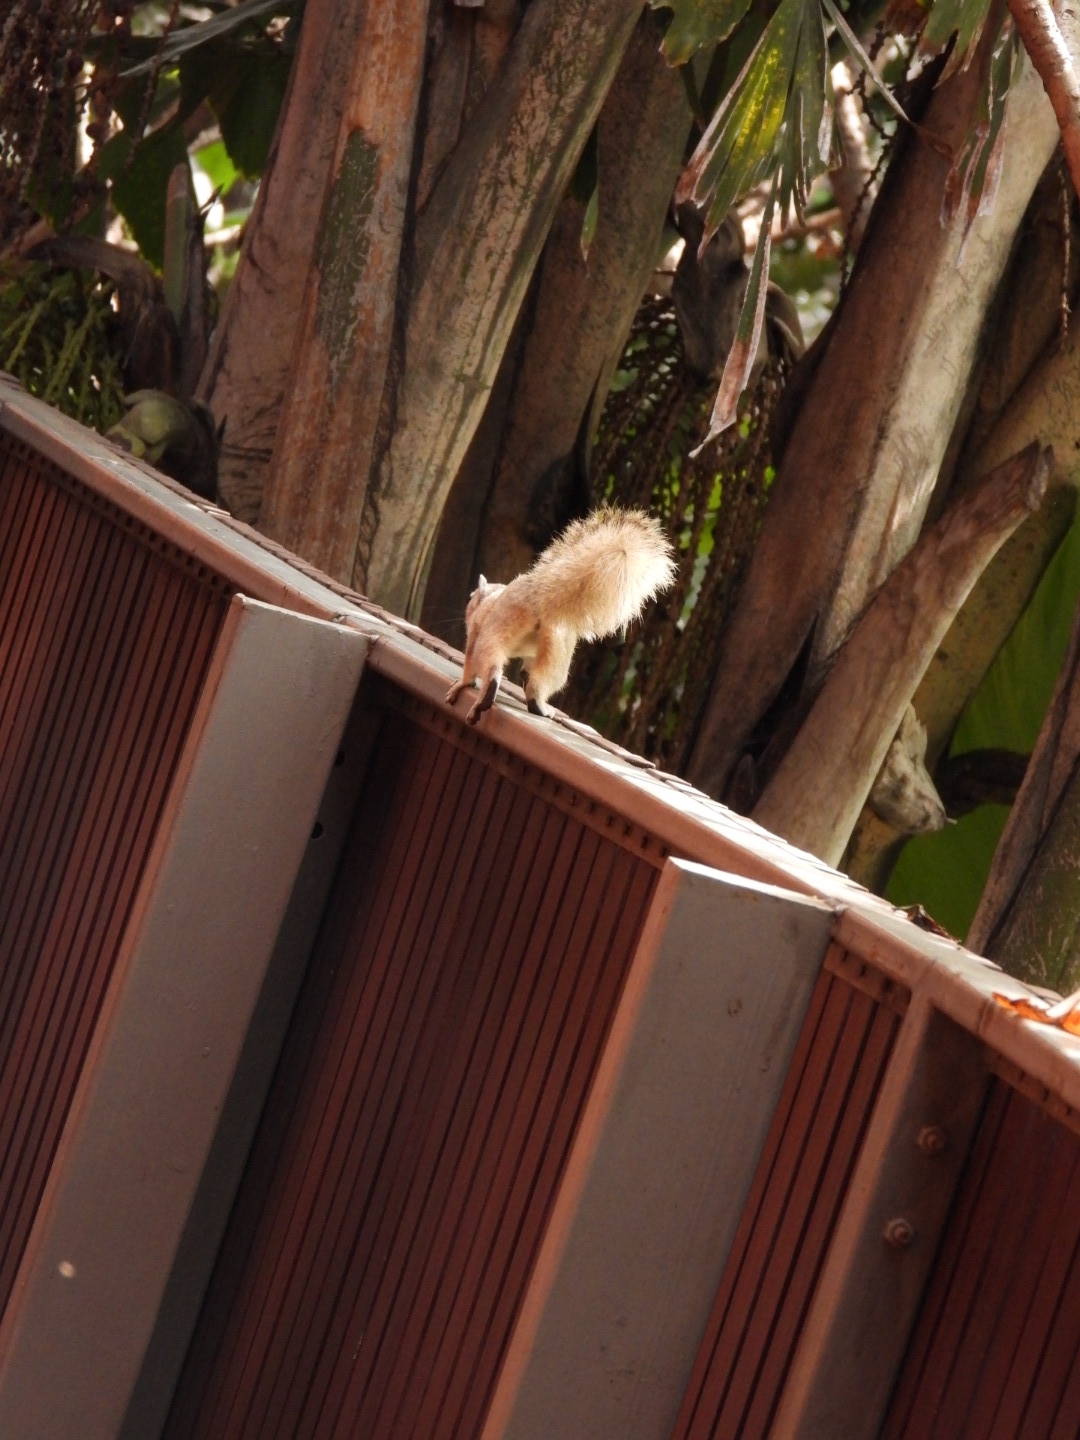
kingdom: Animalia
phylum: Chordata
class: Mammalia
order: Rodentia
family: Sciuridae
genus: Callosciurus
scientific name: Callosciurus finlaysonii
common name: Finlayson's squirrel
